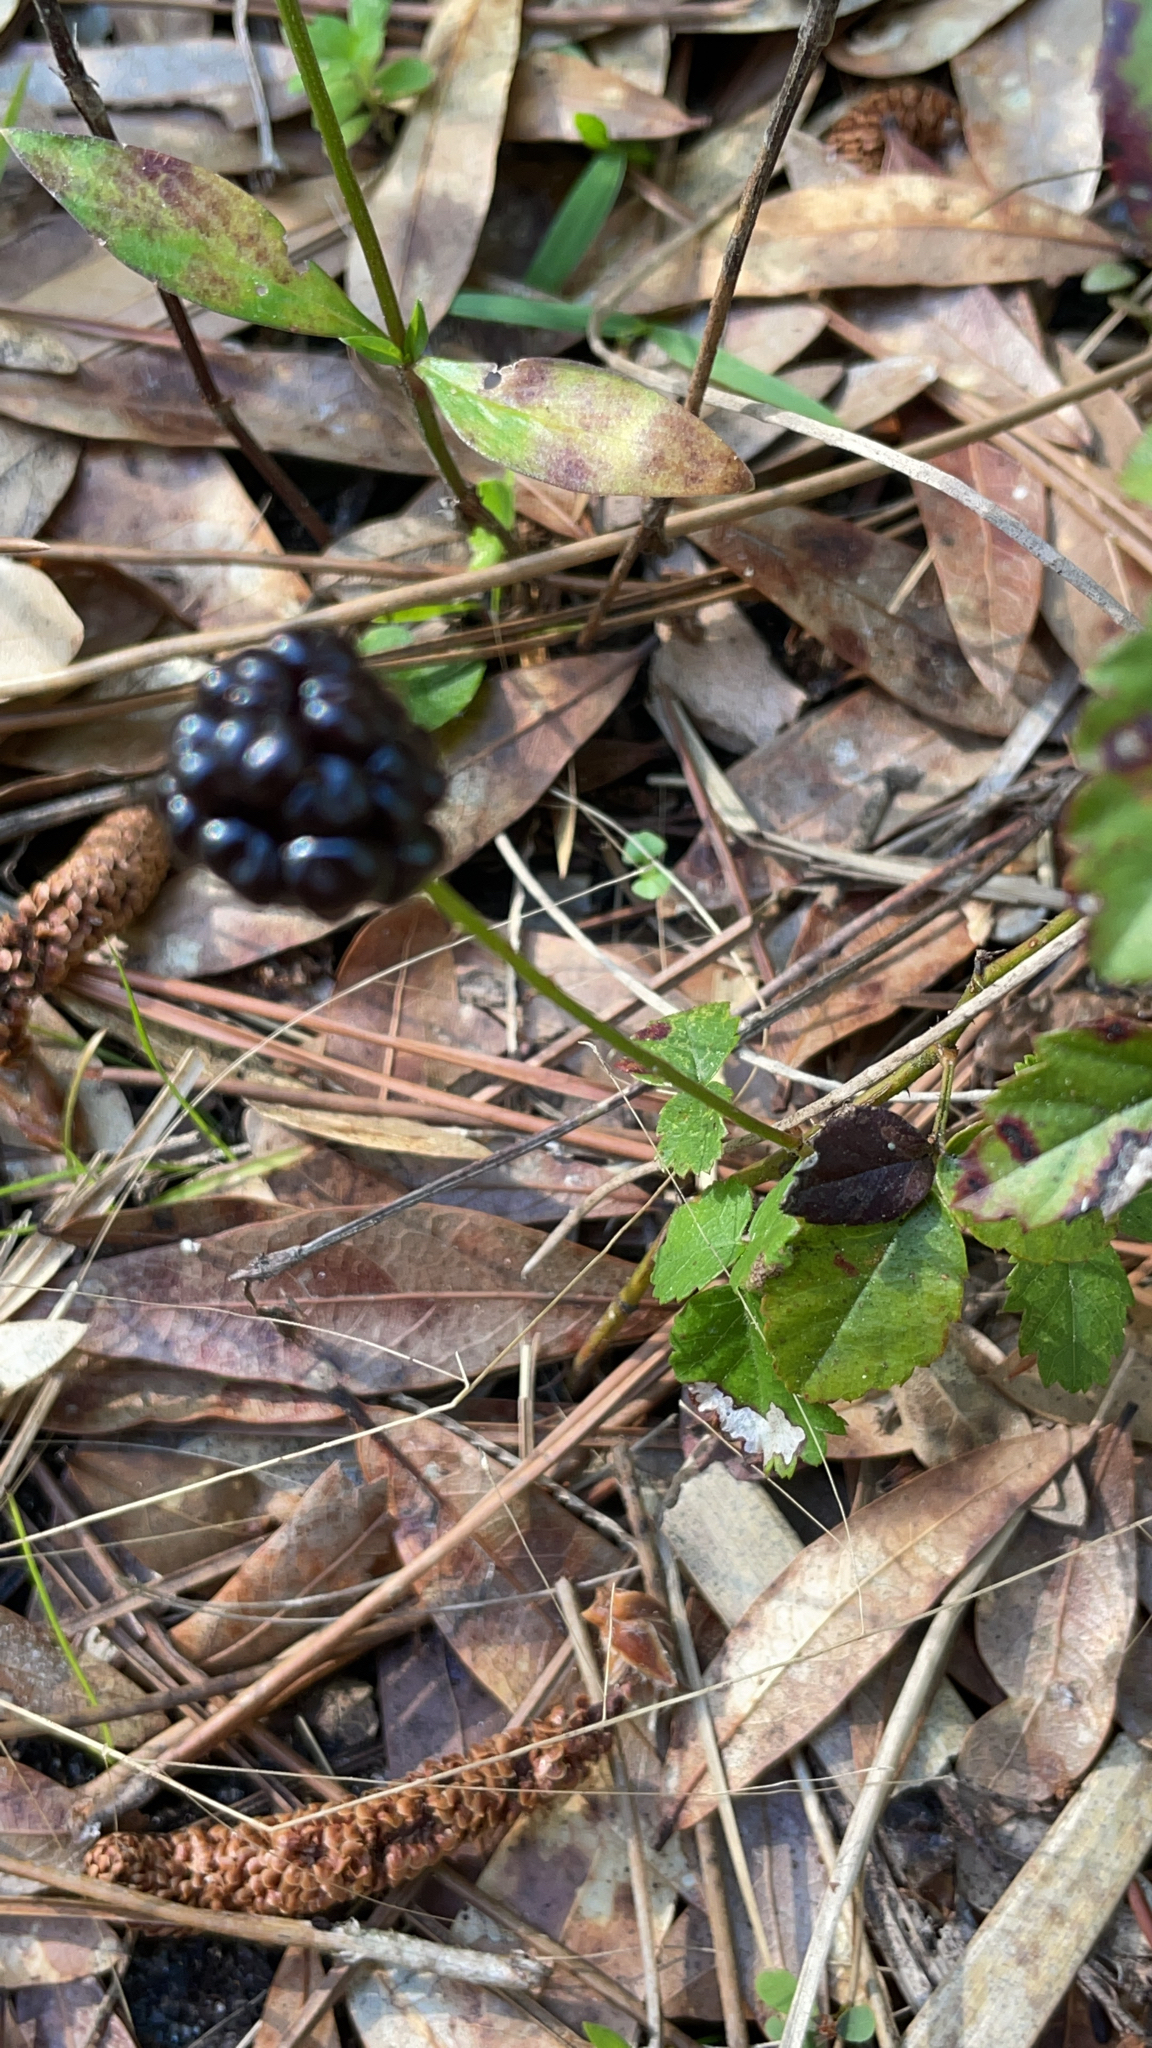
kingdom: Plantae
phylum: Tracheophyta
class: Magnoliopsida
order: Rosales
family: Rosaceae
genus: Rubus
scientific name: Rubus trivialis
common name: Southern dewberry
